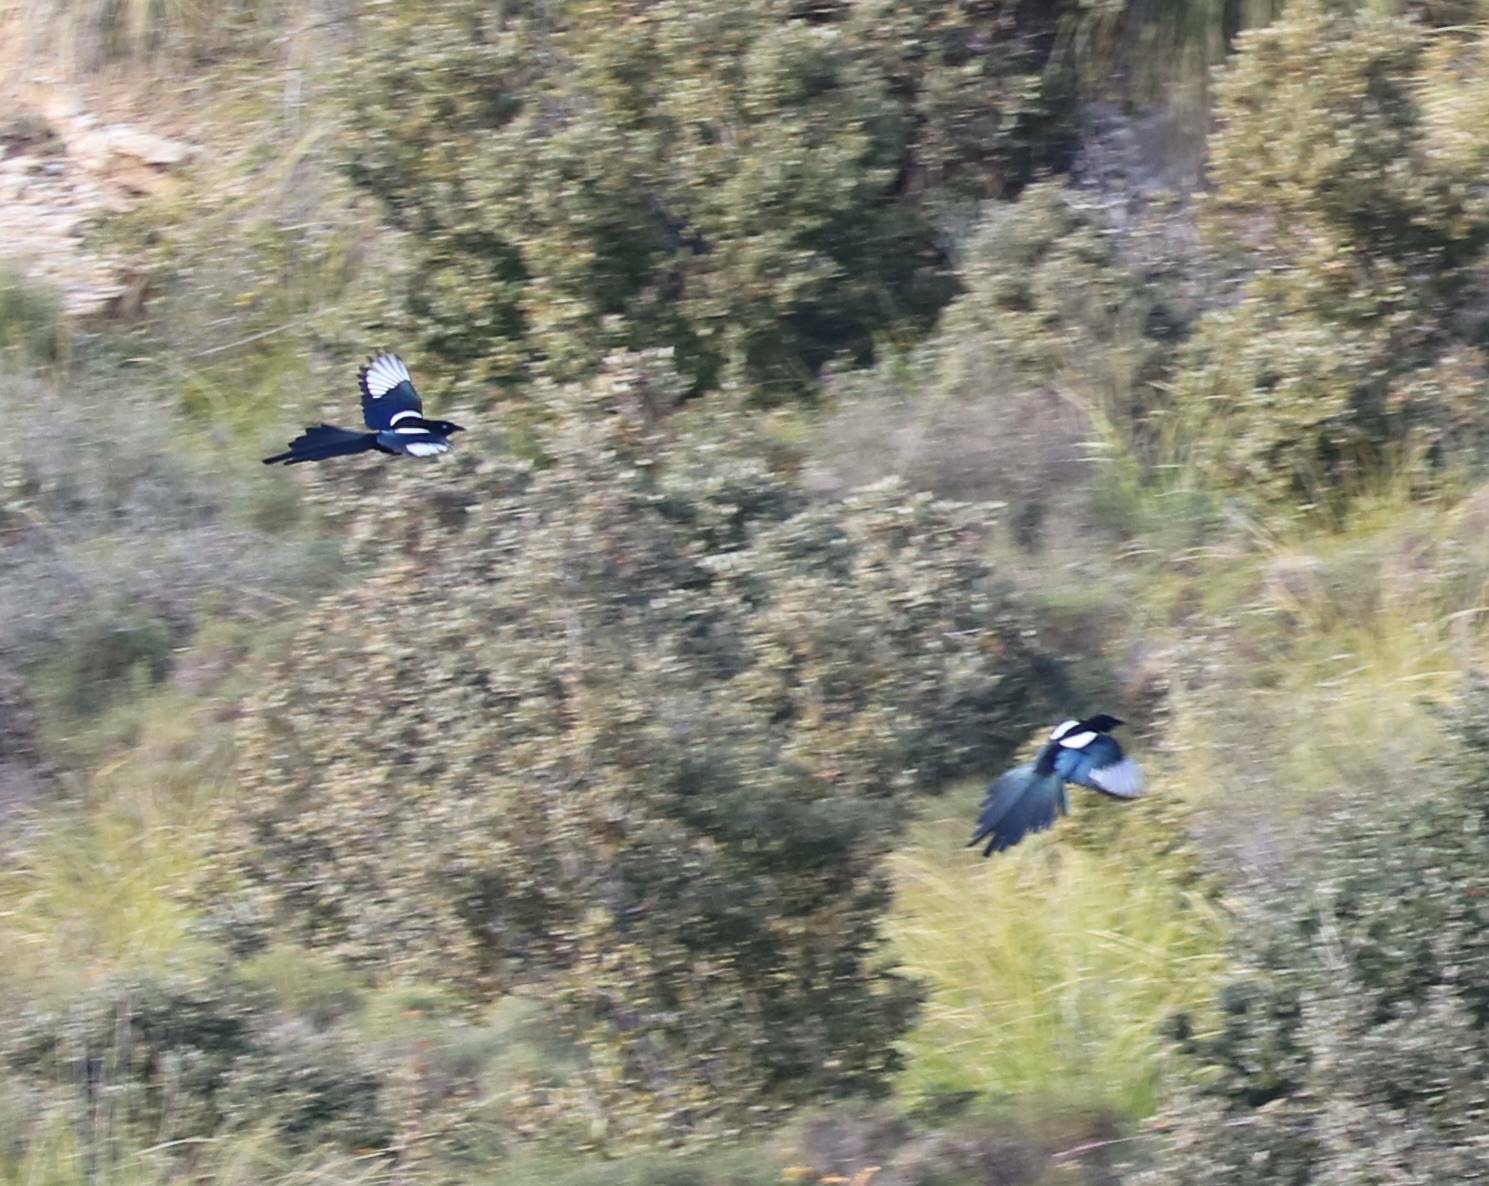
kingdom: Animalia
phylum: Chordata
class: Aves
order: Passeriformes
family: Corvidae
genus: Pica
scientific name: Pica mauritanica
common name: Maghreb magpie
